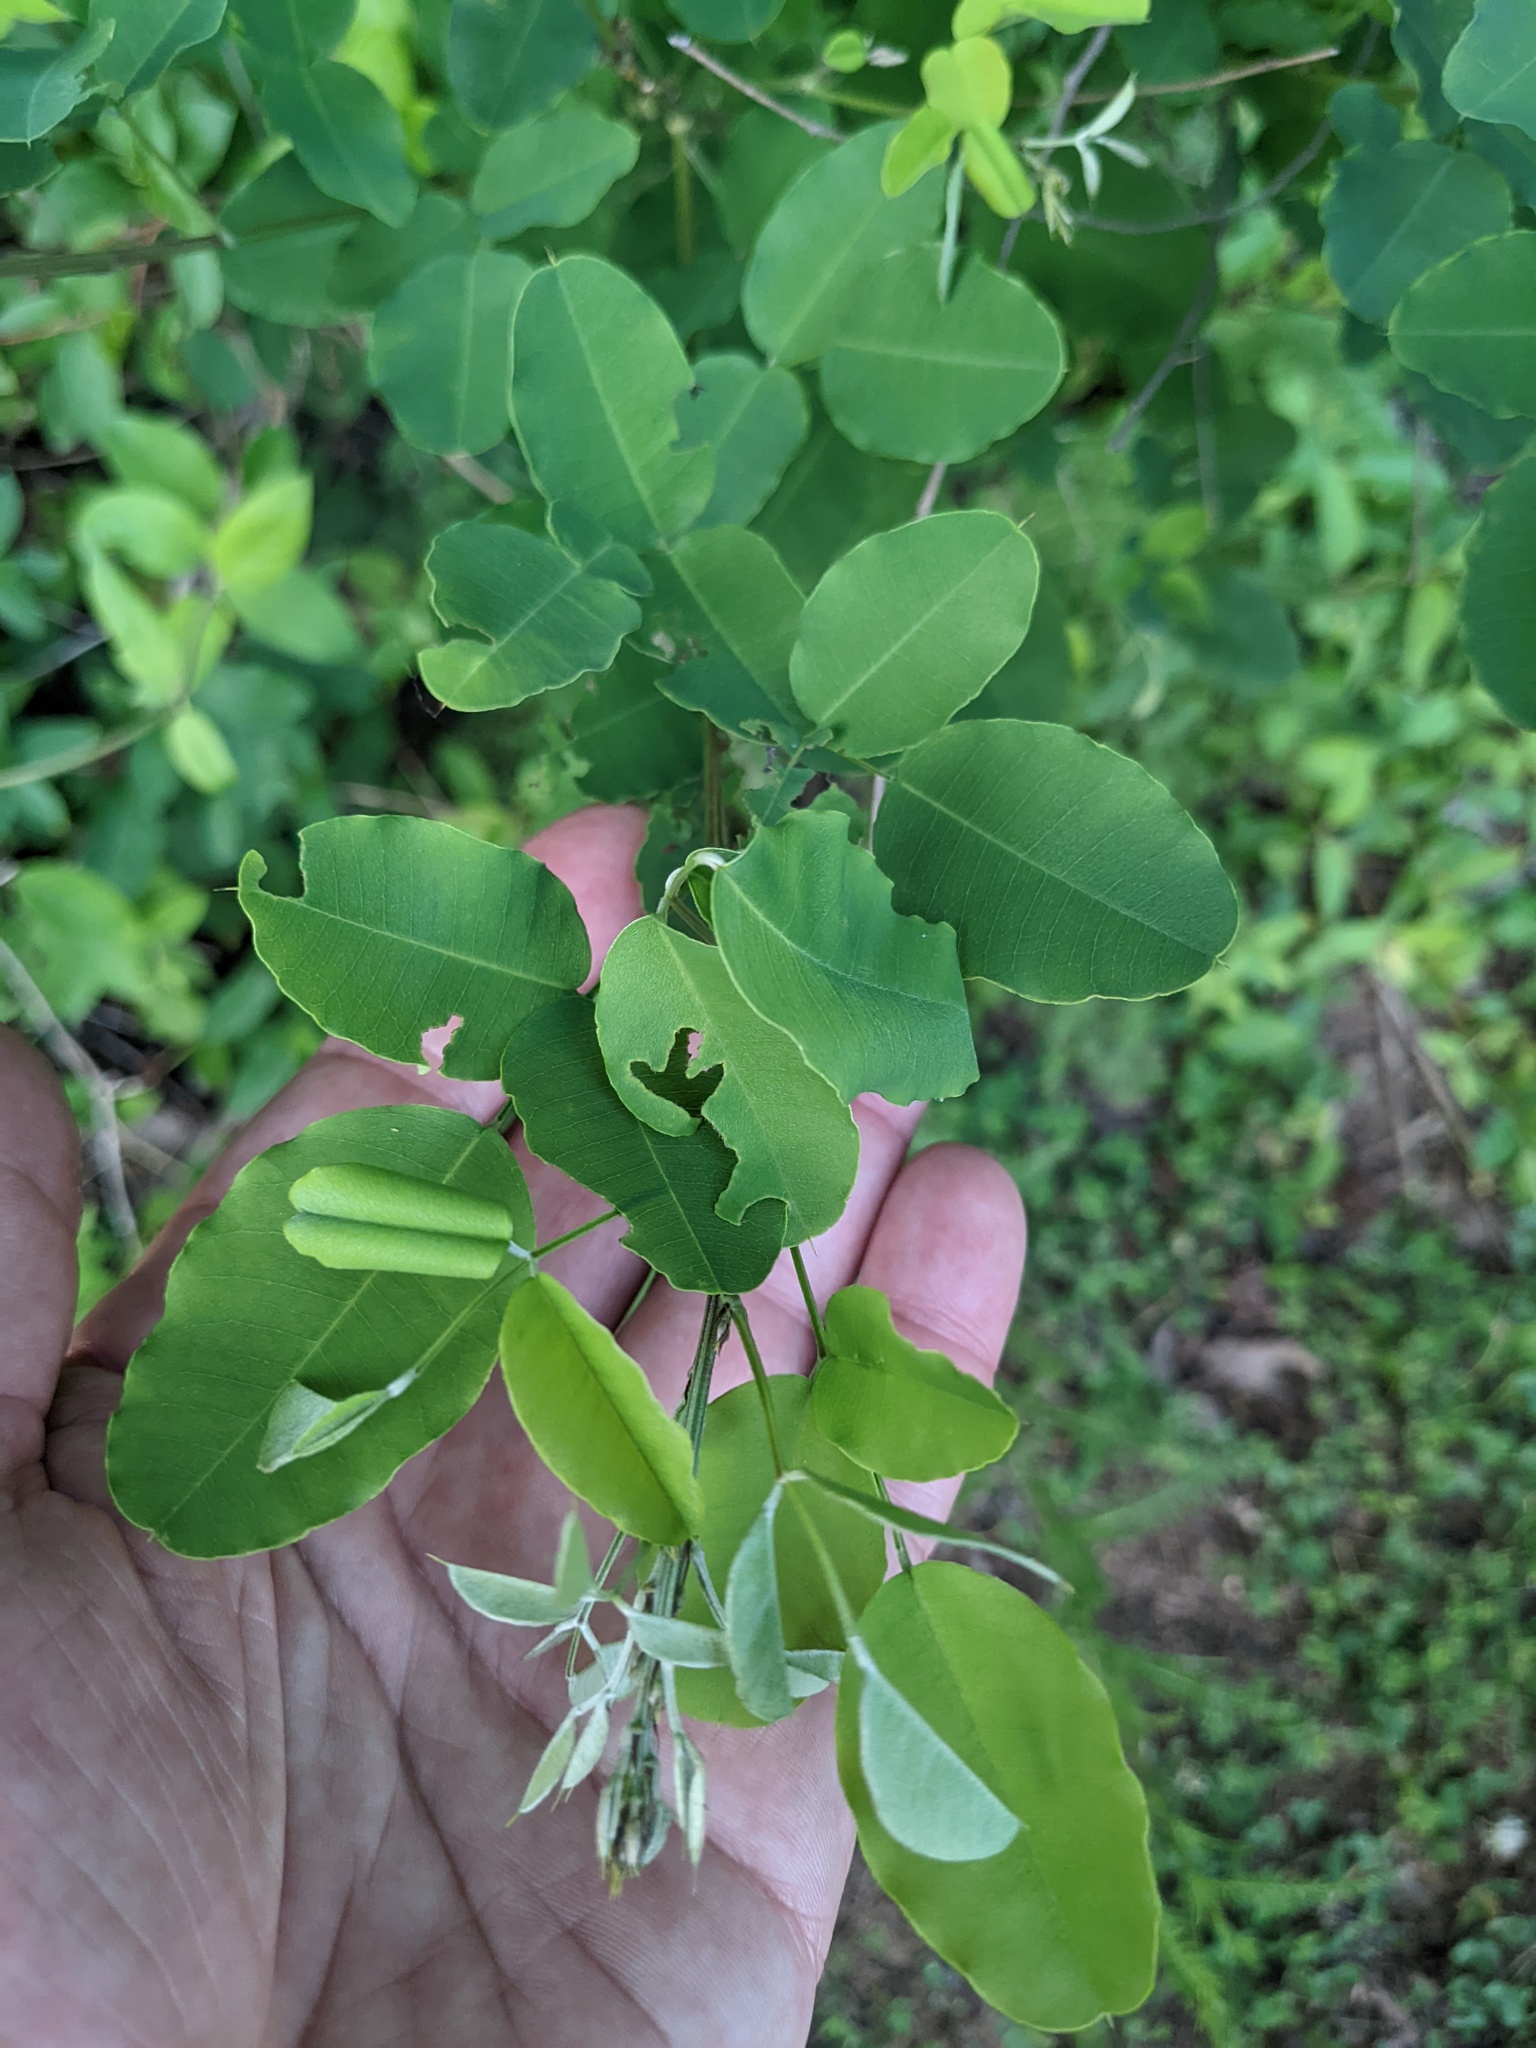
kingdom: Plantae
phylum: Tracheophyta
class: Magnoliopsida
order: Fabales
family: Fabaceae
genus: Lespedeza
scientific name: Lespedeza bicolor
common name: Shrub lespedeza
